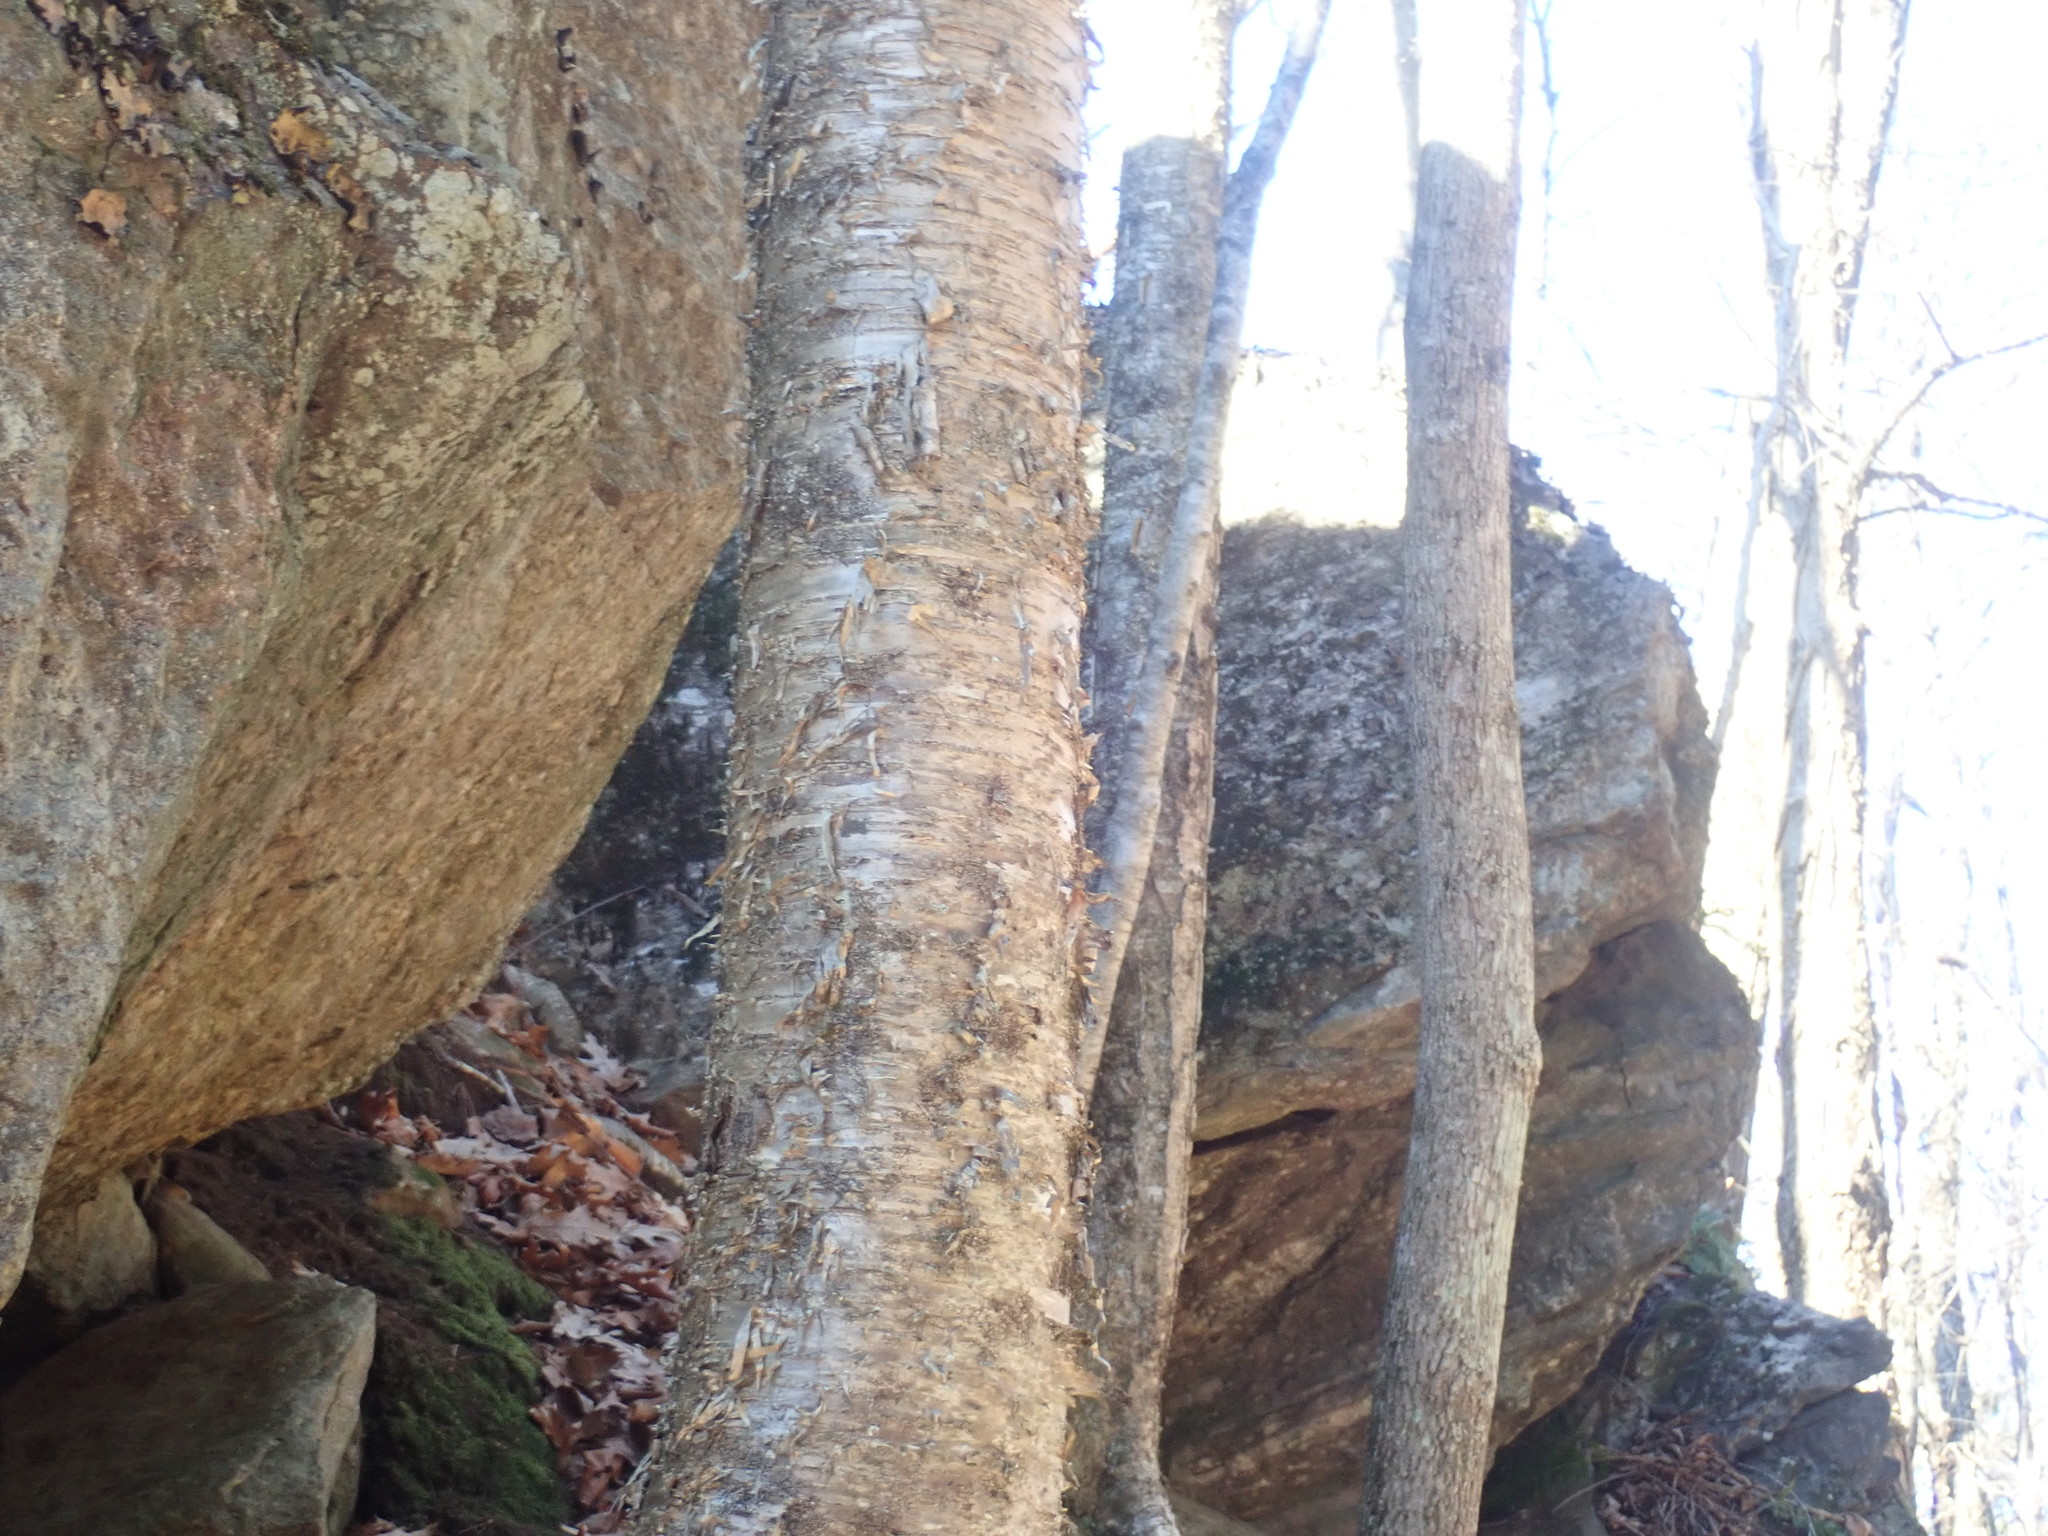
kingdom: Plantae
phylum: Tracheophyta
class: Magnoliopsida
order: Fagales
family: Betulaceae
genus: Betula
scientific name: Betula alleghaniensis
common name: Yellow birch
